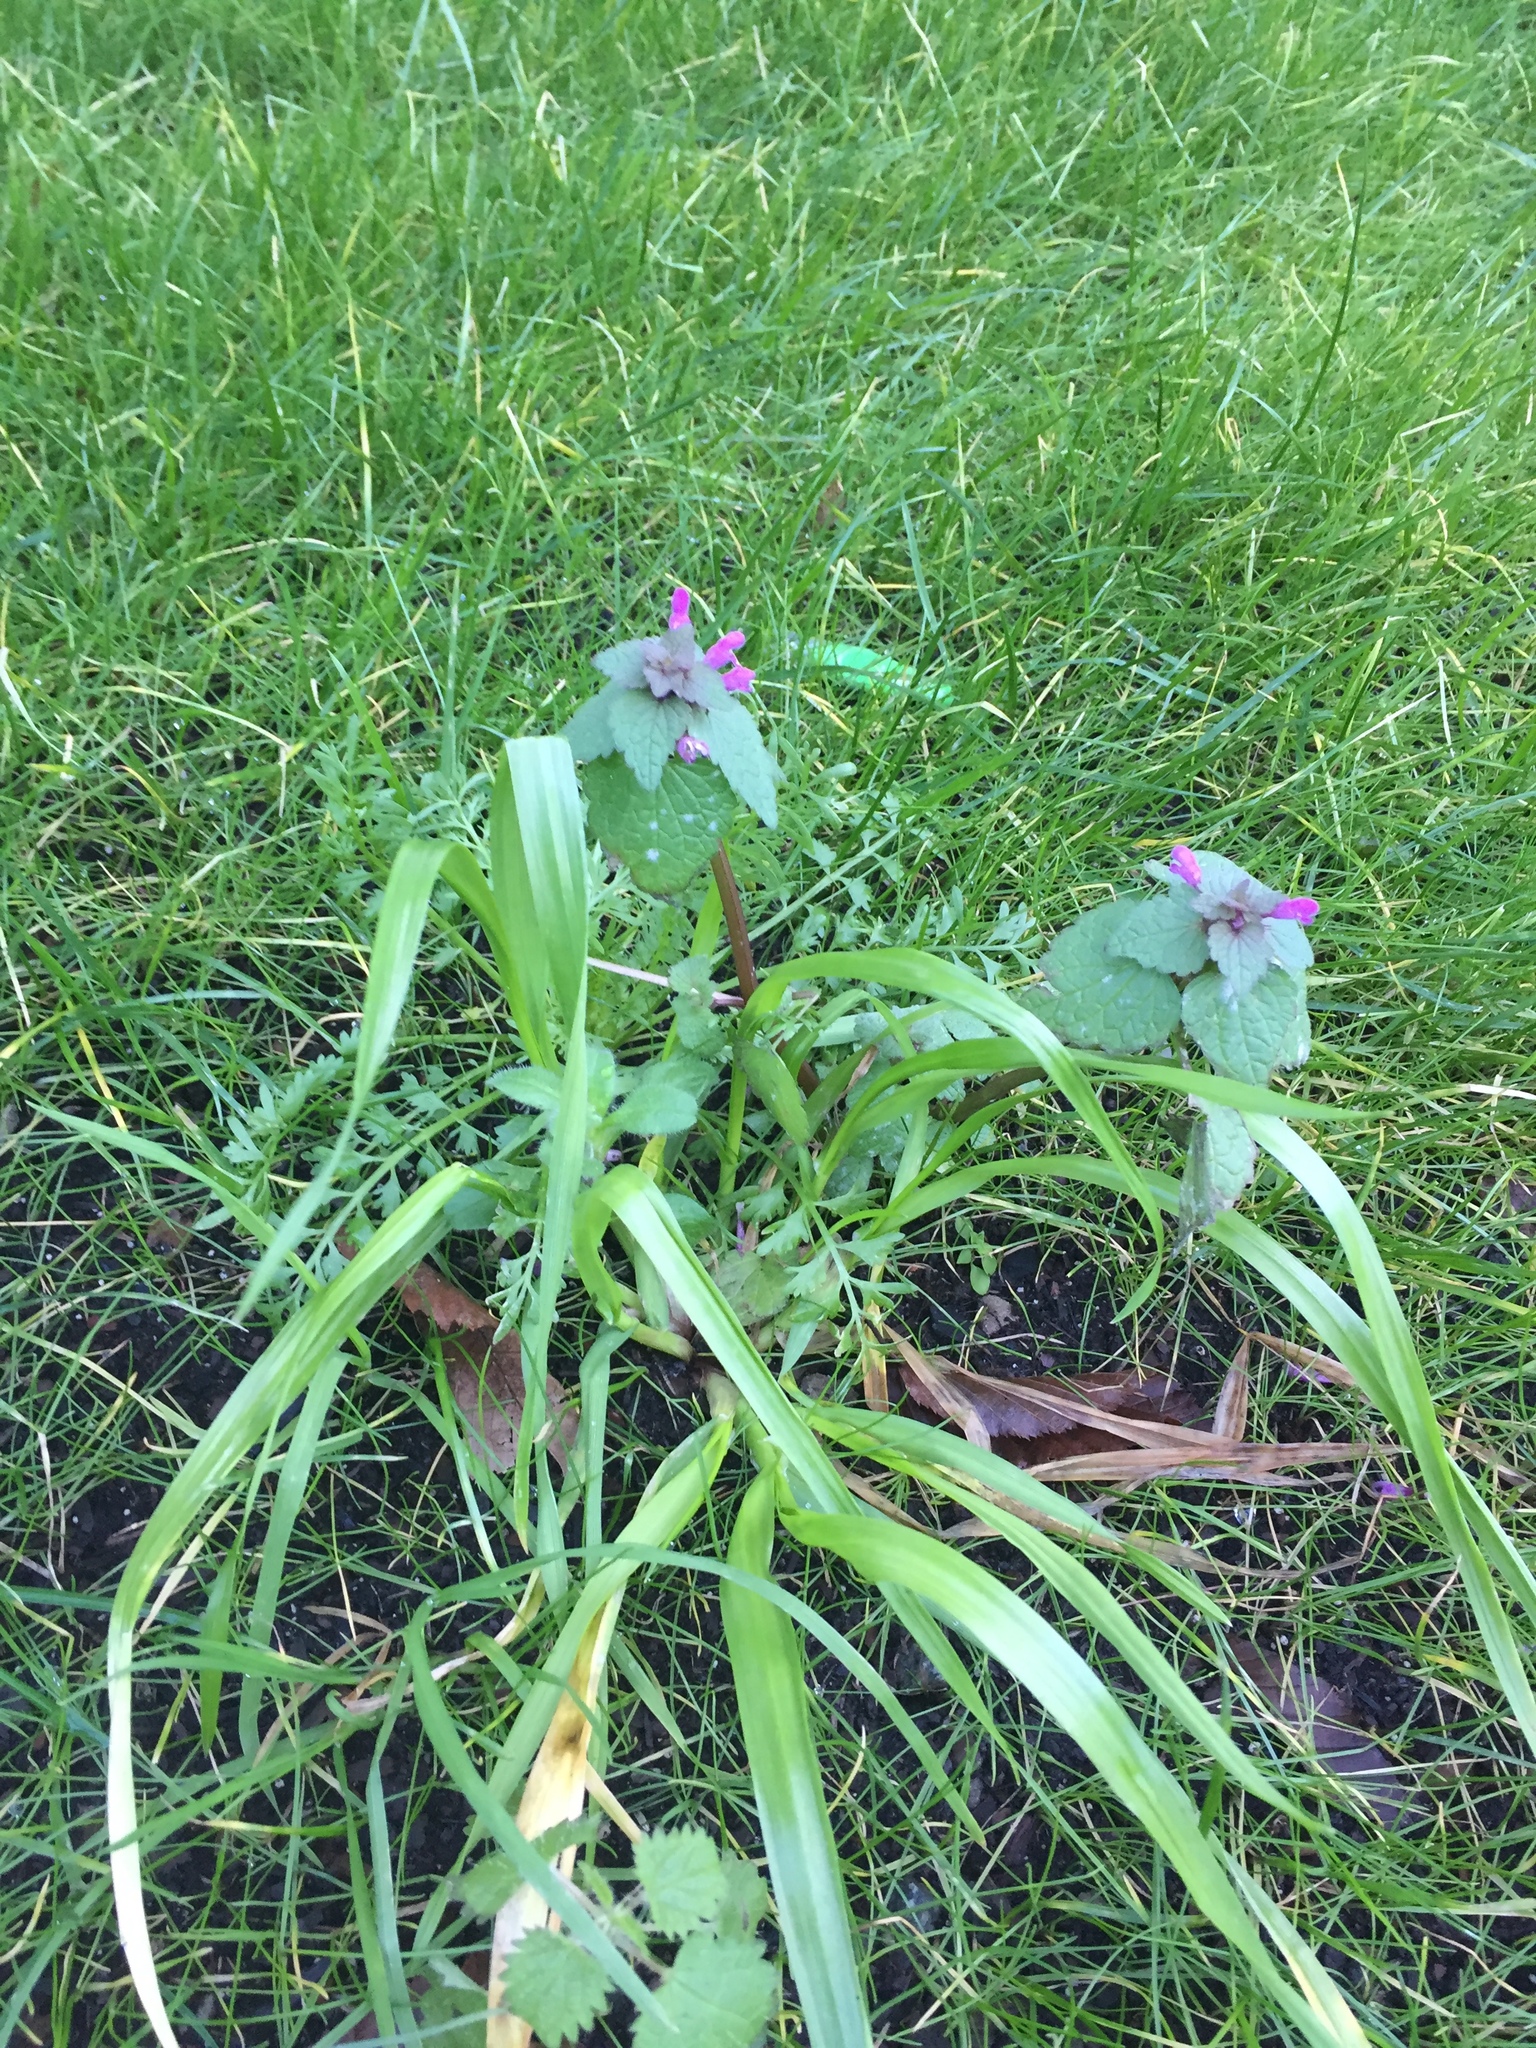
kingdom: Plantae
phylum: Tracheophyta
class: Magnoliopsida
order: Lamiales
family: Lamiaceae
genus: Lamium
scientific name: Lamium purpureum
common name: Red dead-nettle
